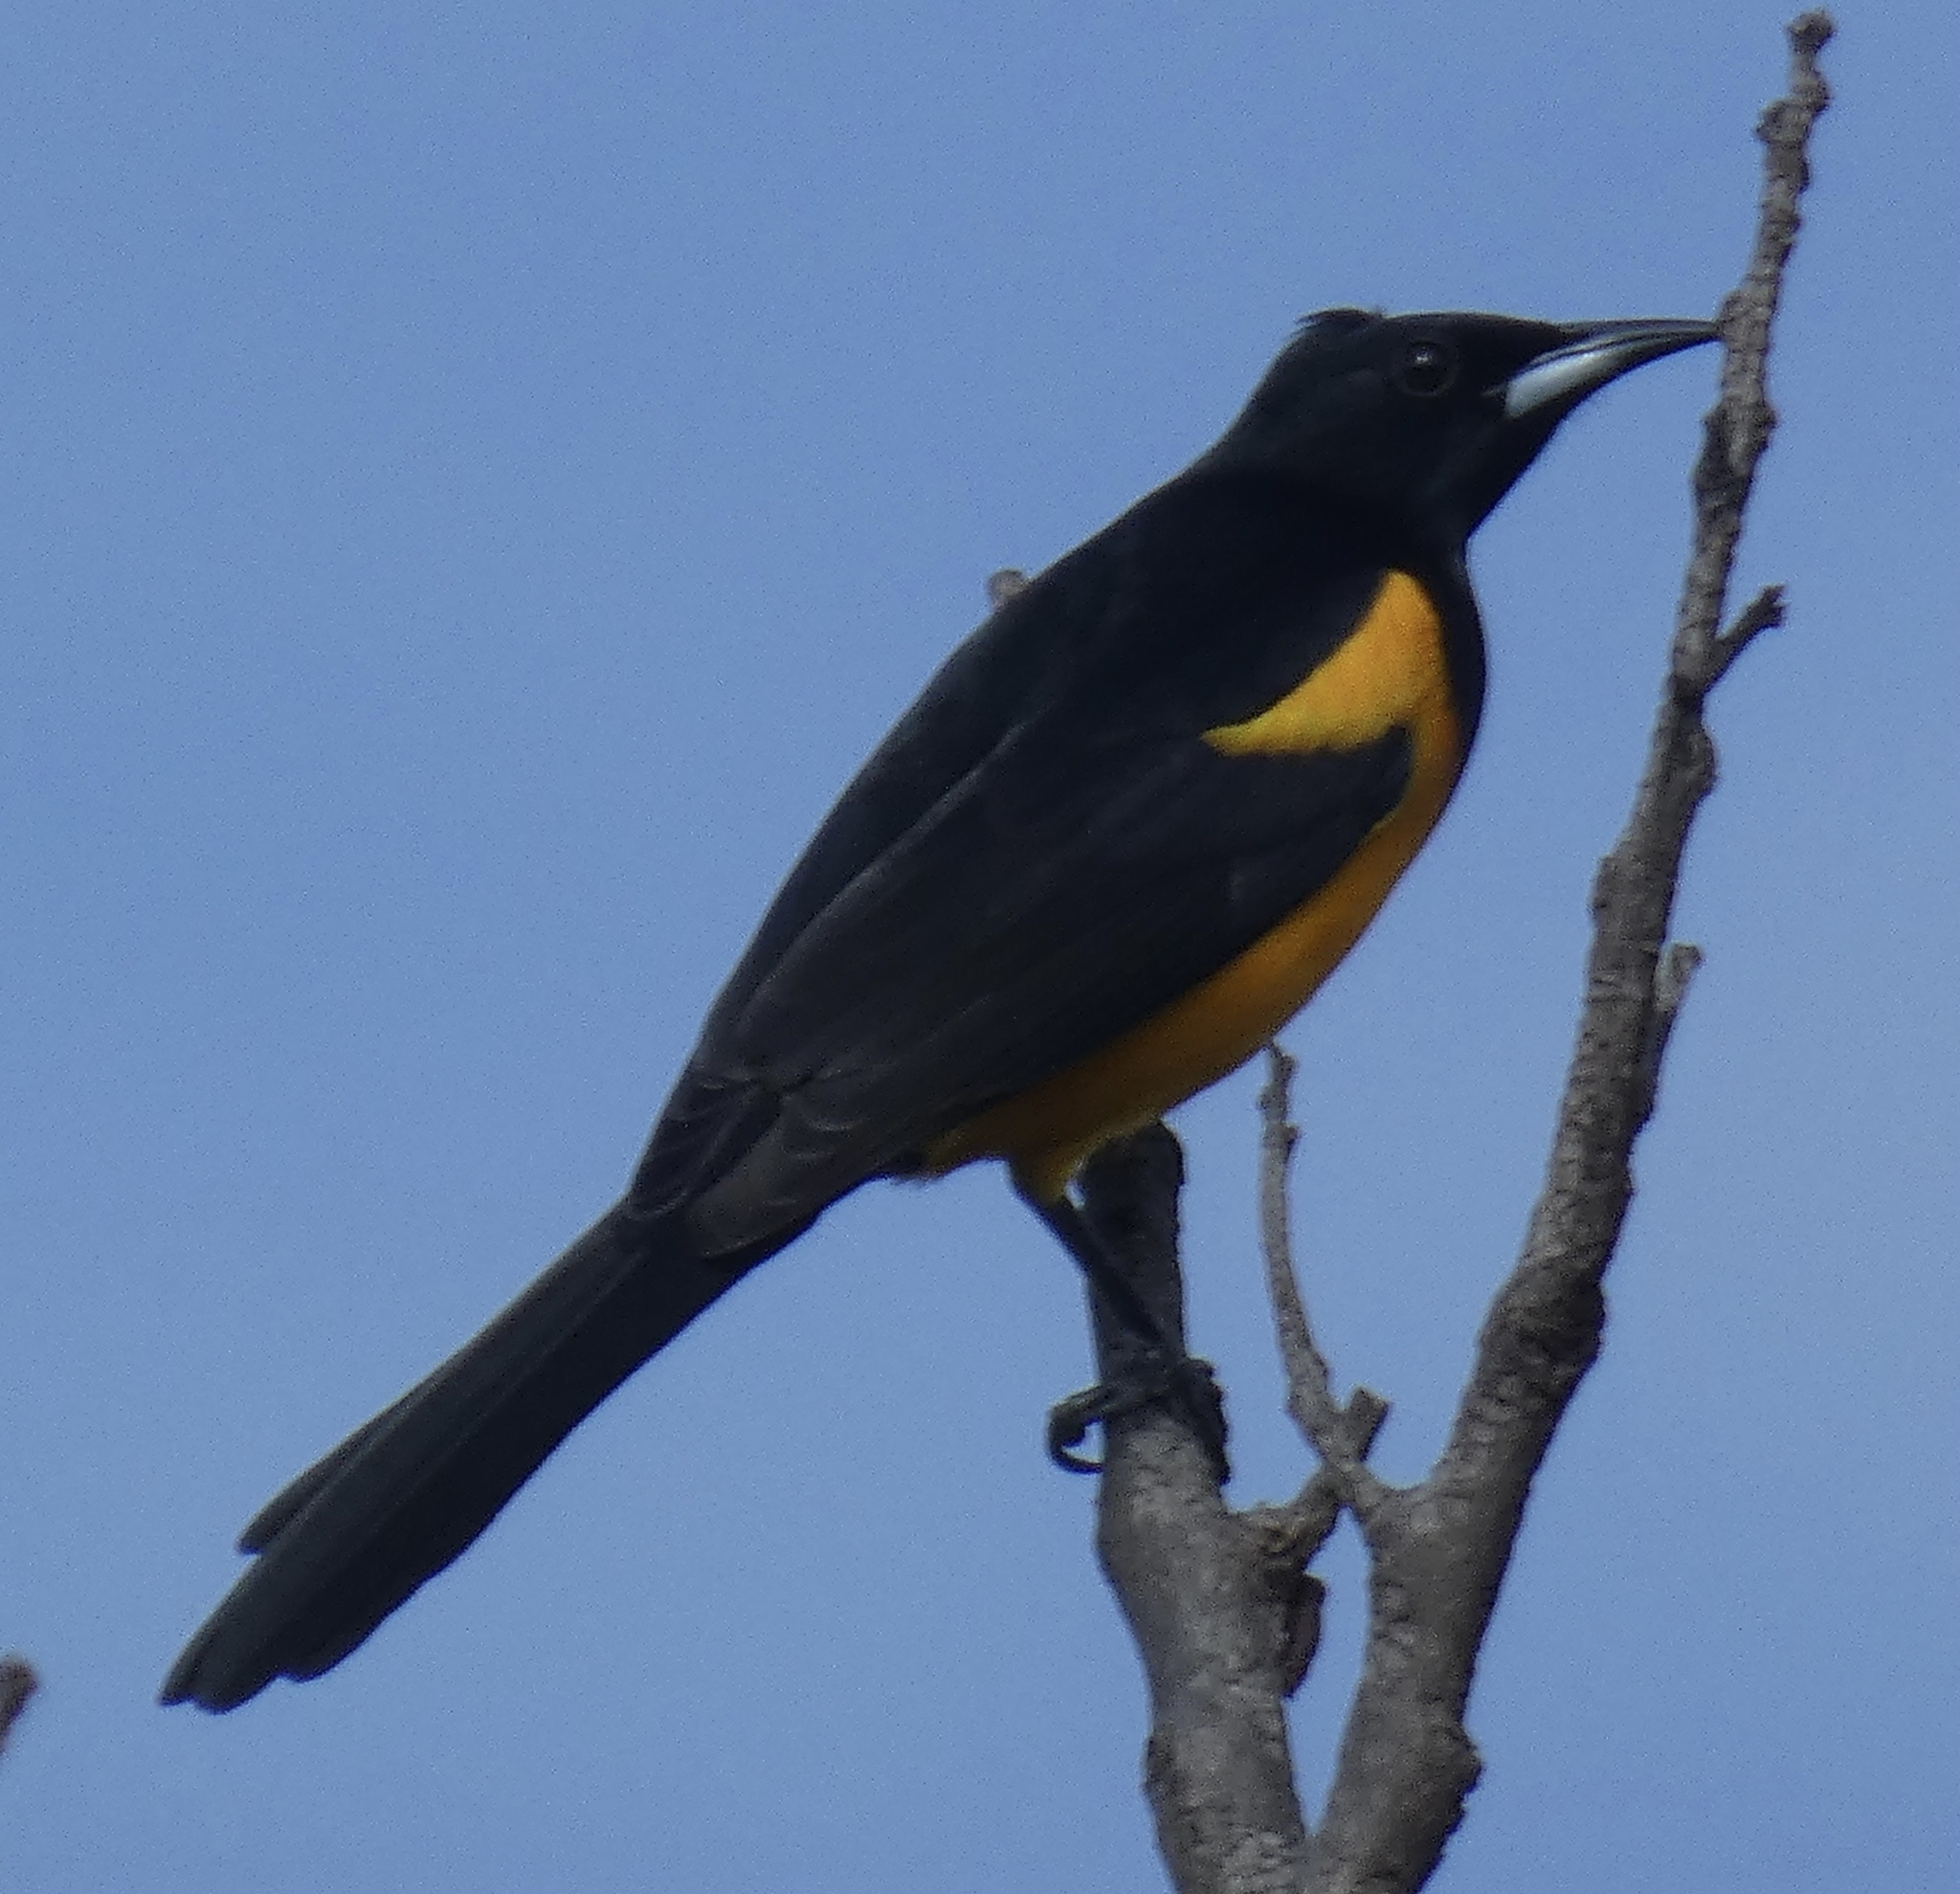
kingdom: Animalia
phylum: Chordata
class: Aves
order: Passeriformes
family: Icteridae
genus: Icterus
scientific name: Icterus wagleri
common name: Black-vented oriole
